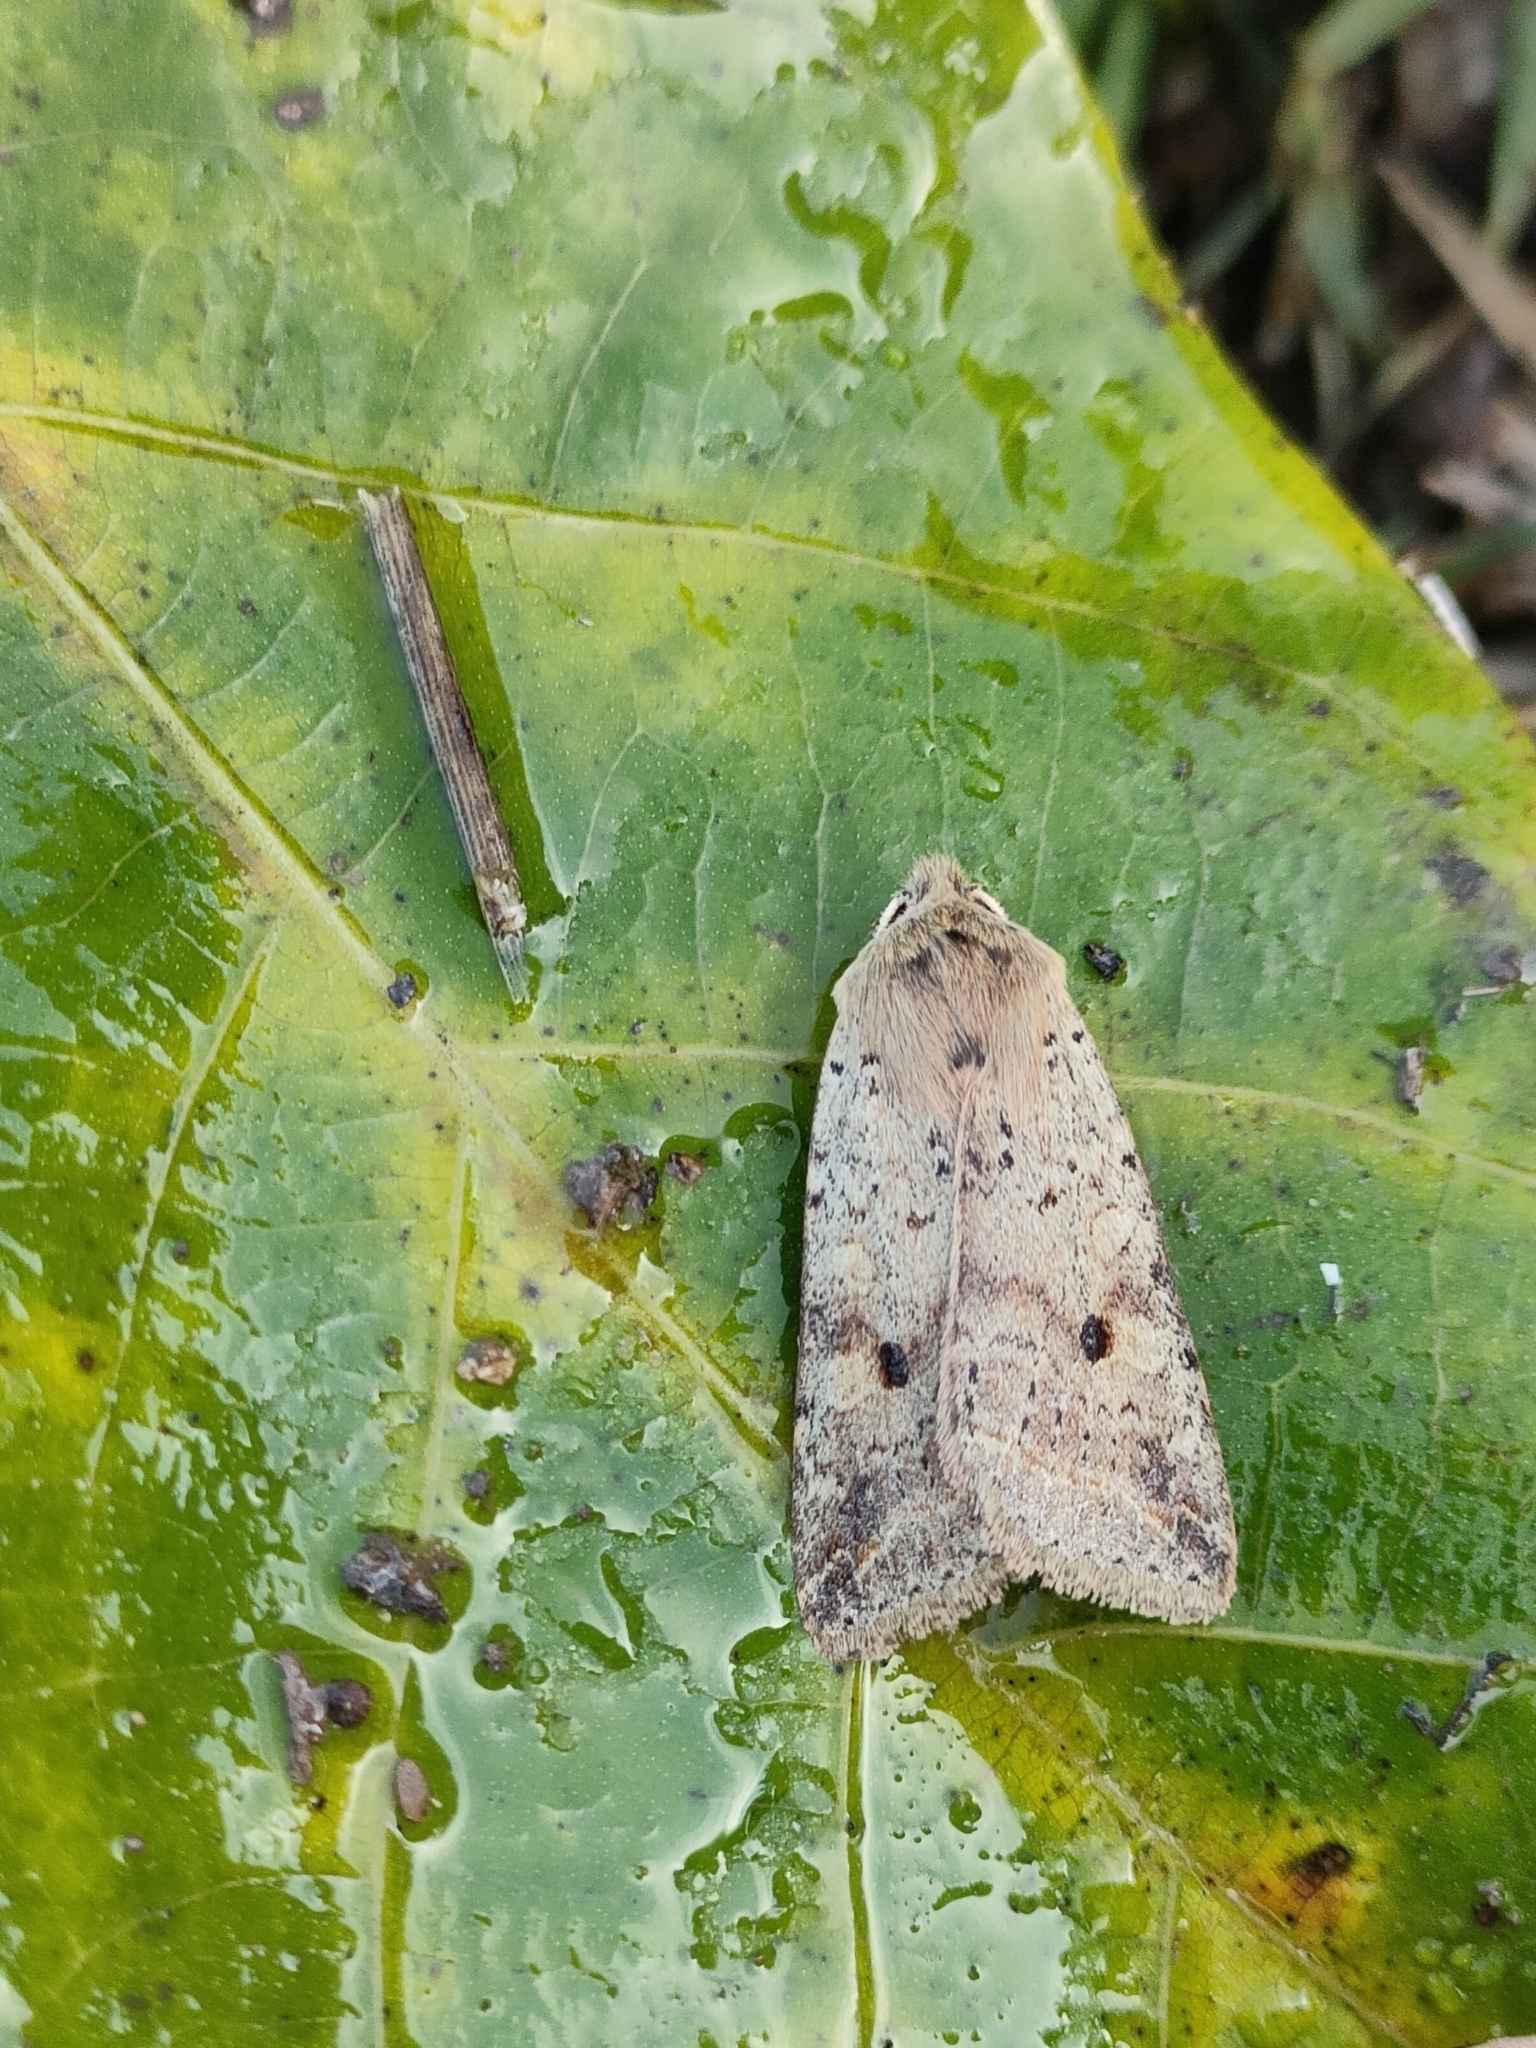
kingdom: Animalia
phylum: Arthropoda
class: Insecta
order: Lepidoptera
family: Noctuidae
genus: Agrochola
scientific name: Agrochola blidaensis
